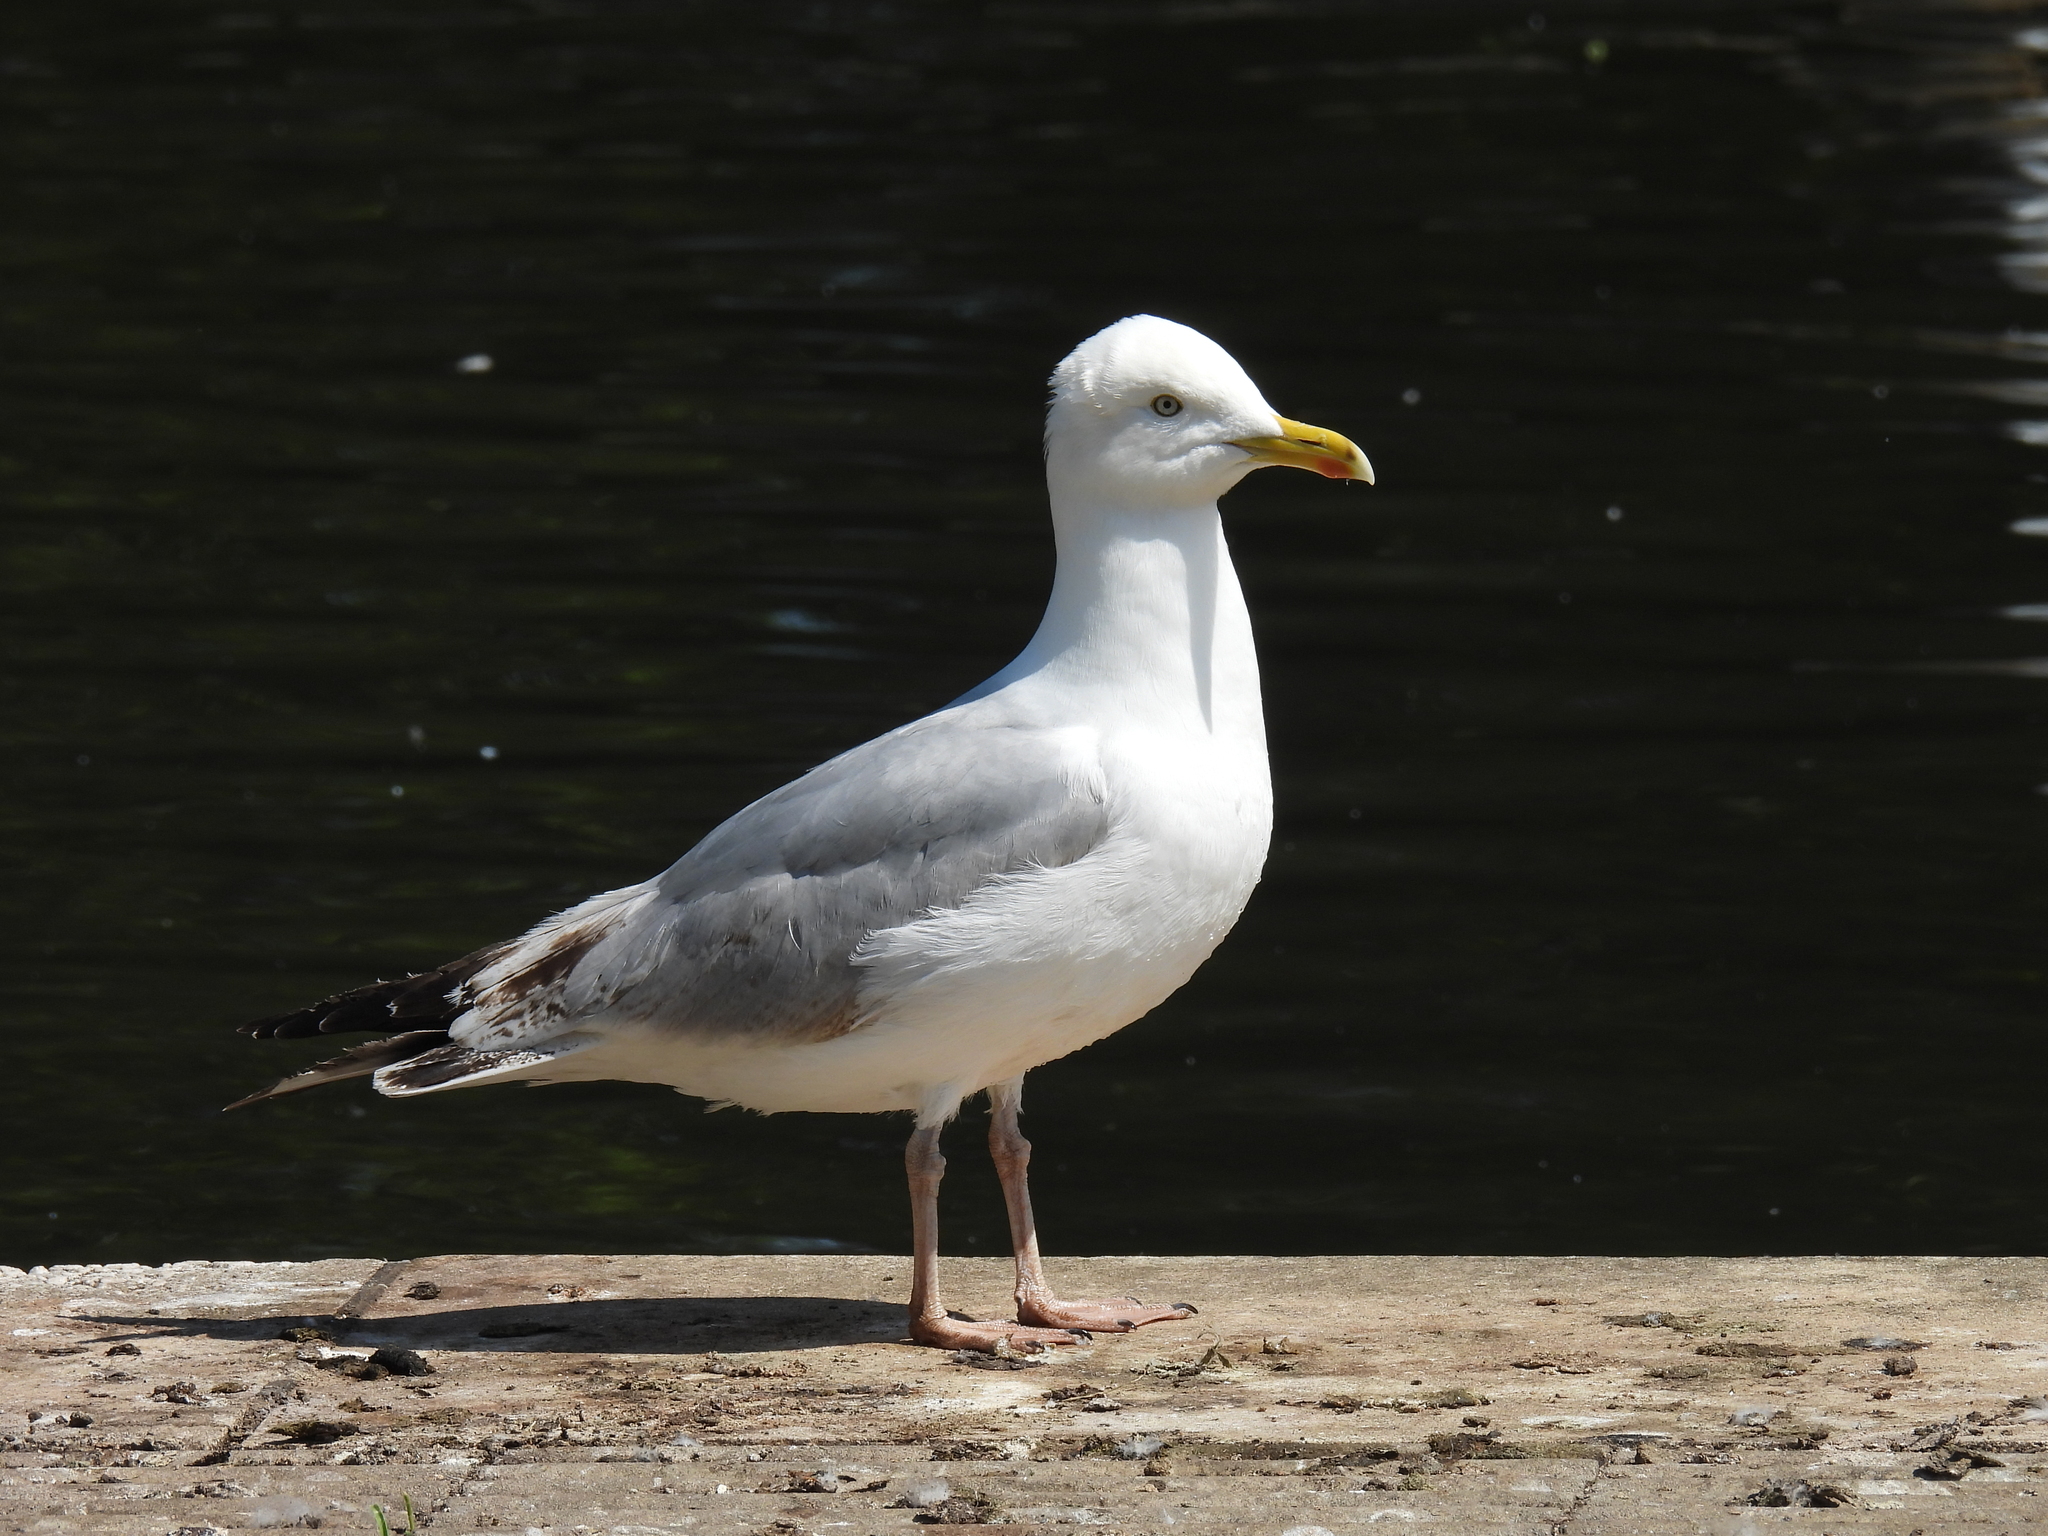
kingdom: Animalia
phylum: Chordata
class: Aves
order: Charadriiformes
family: Laridae
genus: Larus
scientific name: Larus argentatus
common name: Herring gull
